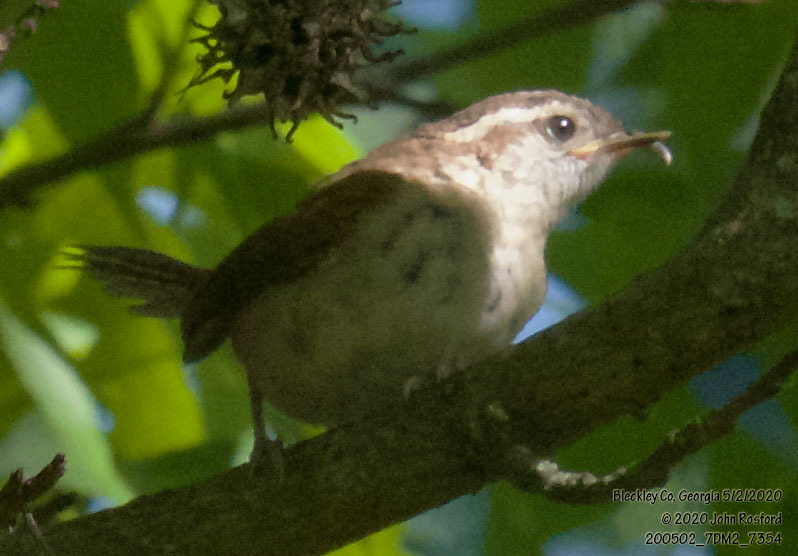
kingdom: Animalia
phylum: Chordata
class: Aves
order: Passeriformes
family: Troglodytidae
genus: Thryothorus
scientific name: Thryothorus ludovicianus
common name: Carolina wren
